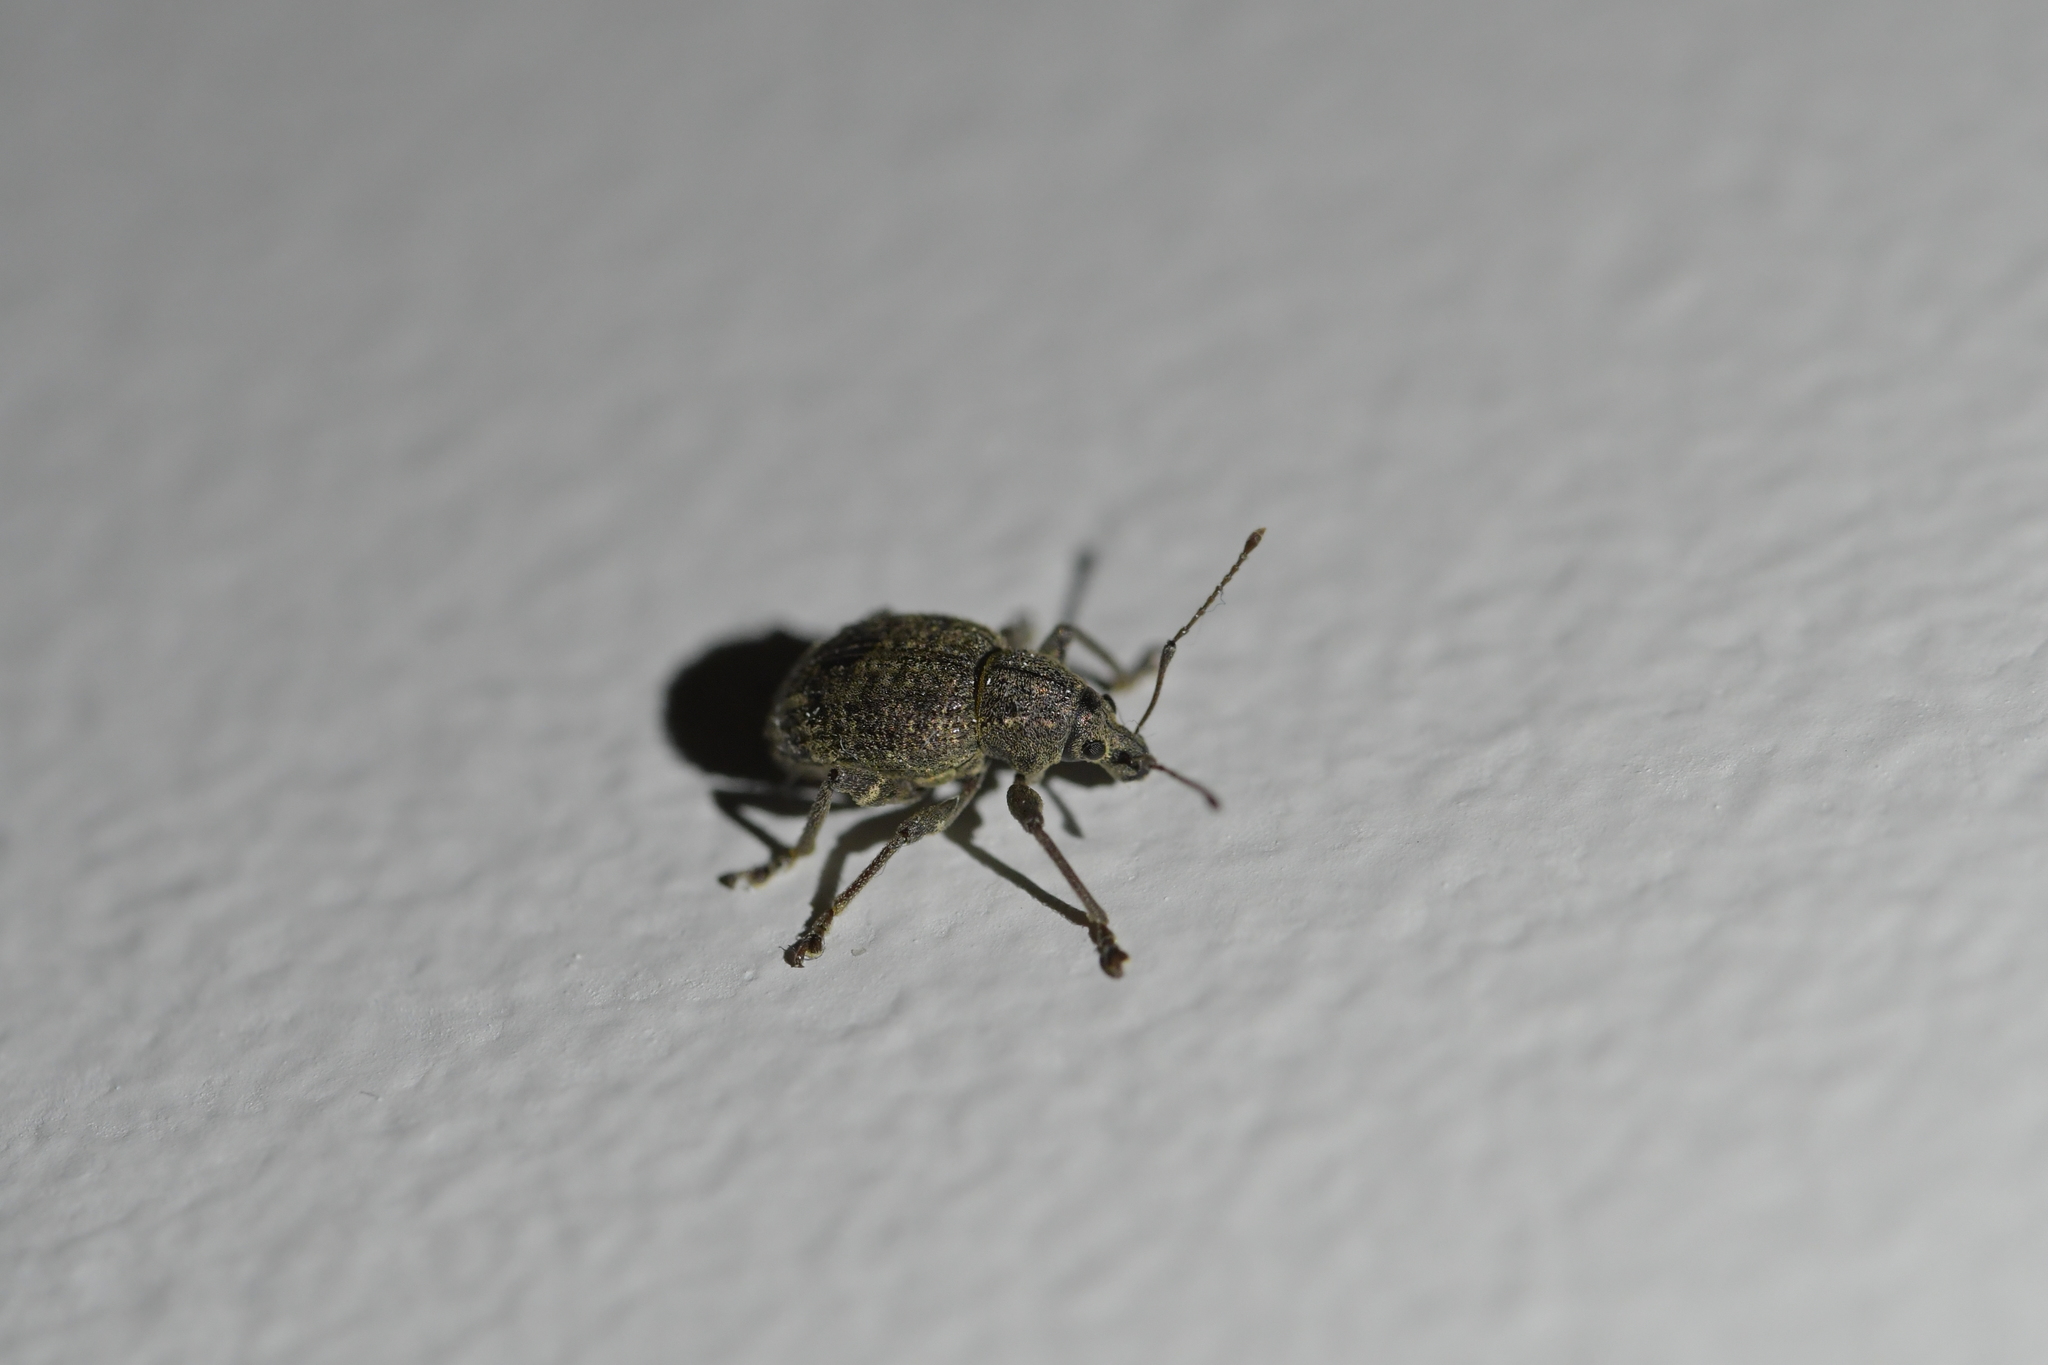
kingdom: Animalia
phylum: Arthropoda
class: Insecta
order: Coleoptera
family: Curculionidae
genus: Phlyctinus
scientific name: Phlyctinus callosus
